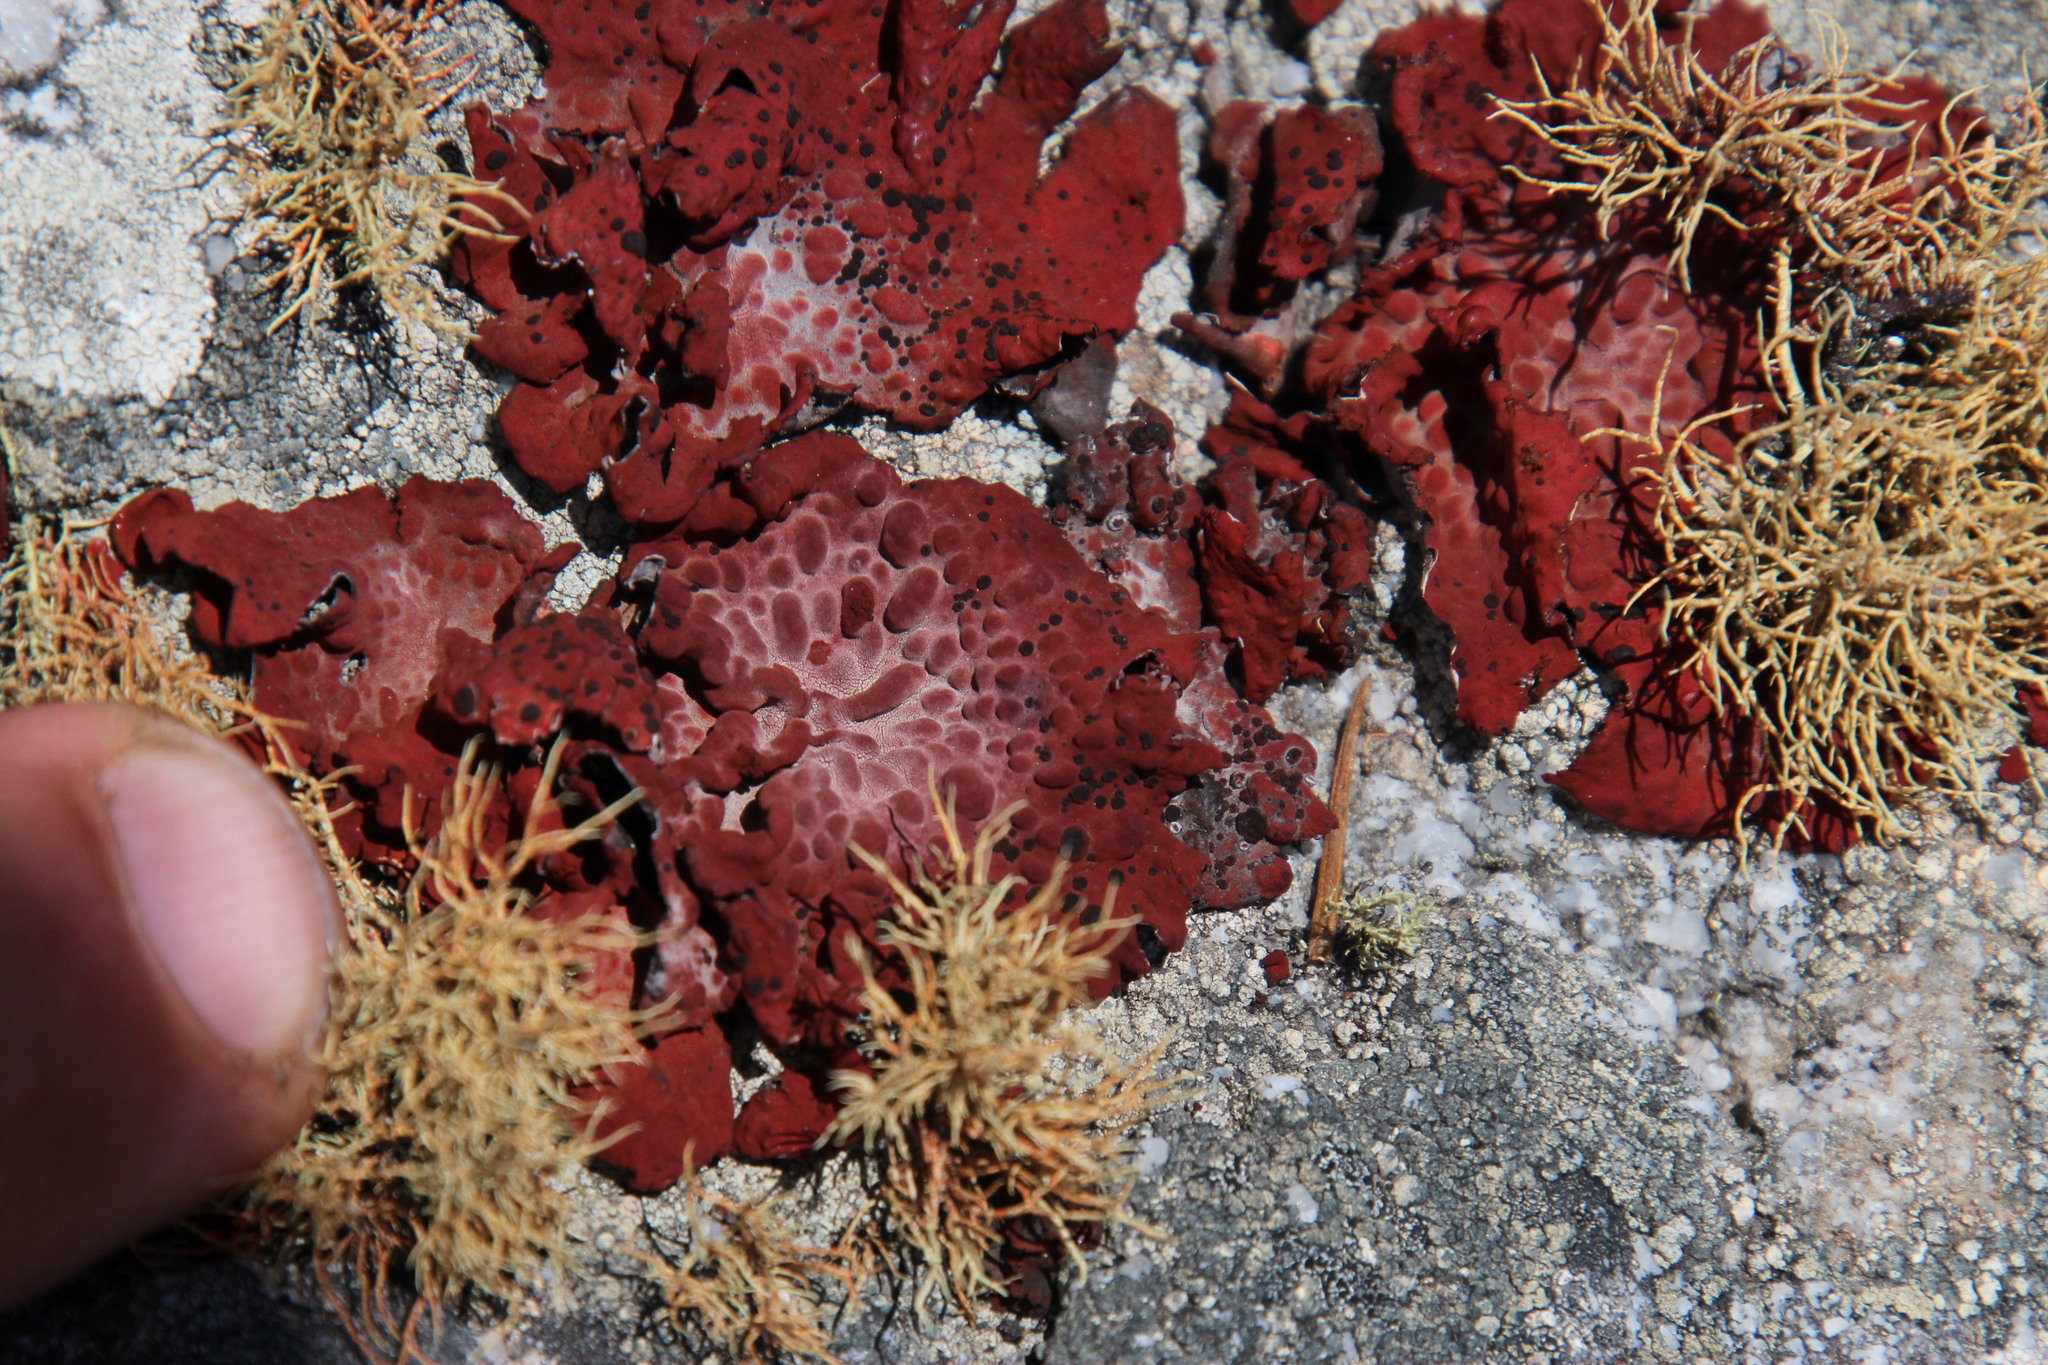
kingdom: Fungi
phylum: Ascomycota
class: Lecanoromycetes
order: Umbilicariales
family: Umbilicariaceae
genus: Lasallia
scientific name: Lasallia rubiginosa
